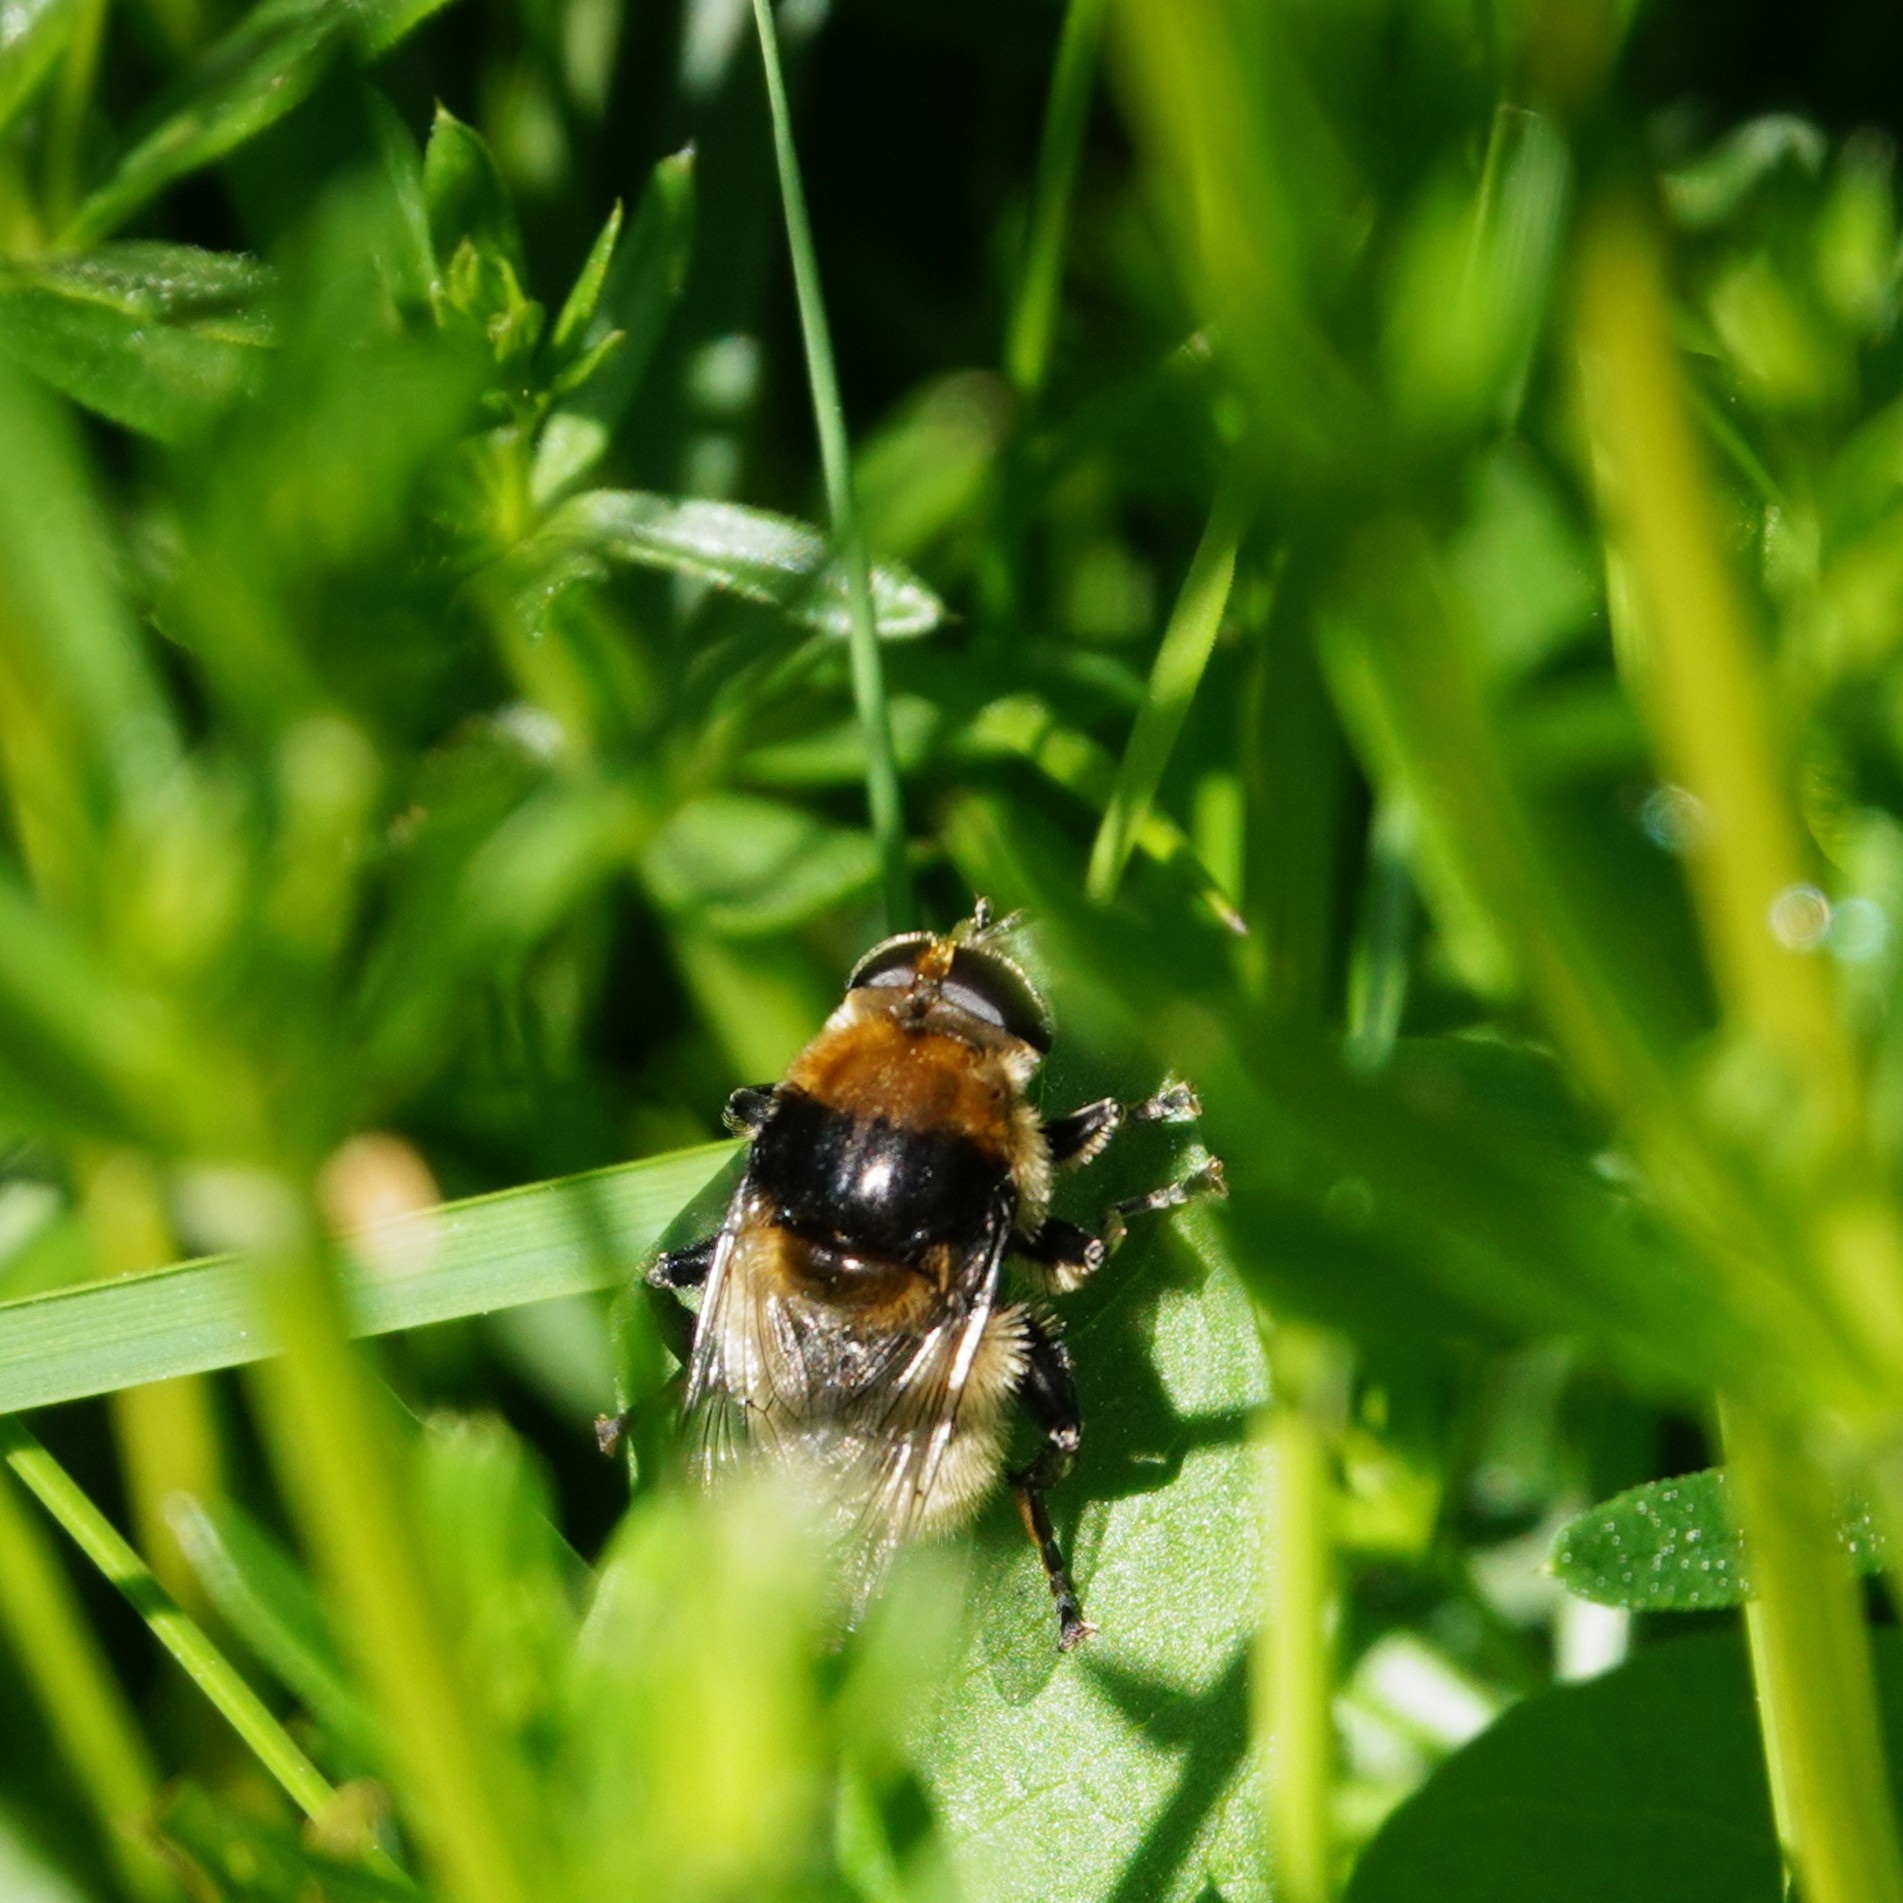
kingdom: Animalia
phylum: Arthropoda
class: Insecta
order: Diptera
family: Syrphidae
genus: Merodon
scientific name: Merodon equestris
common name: Greater bulb-fly
